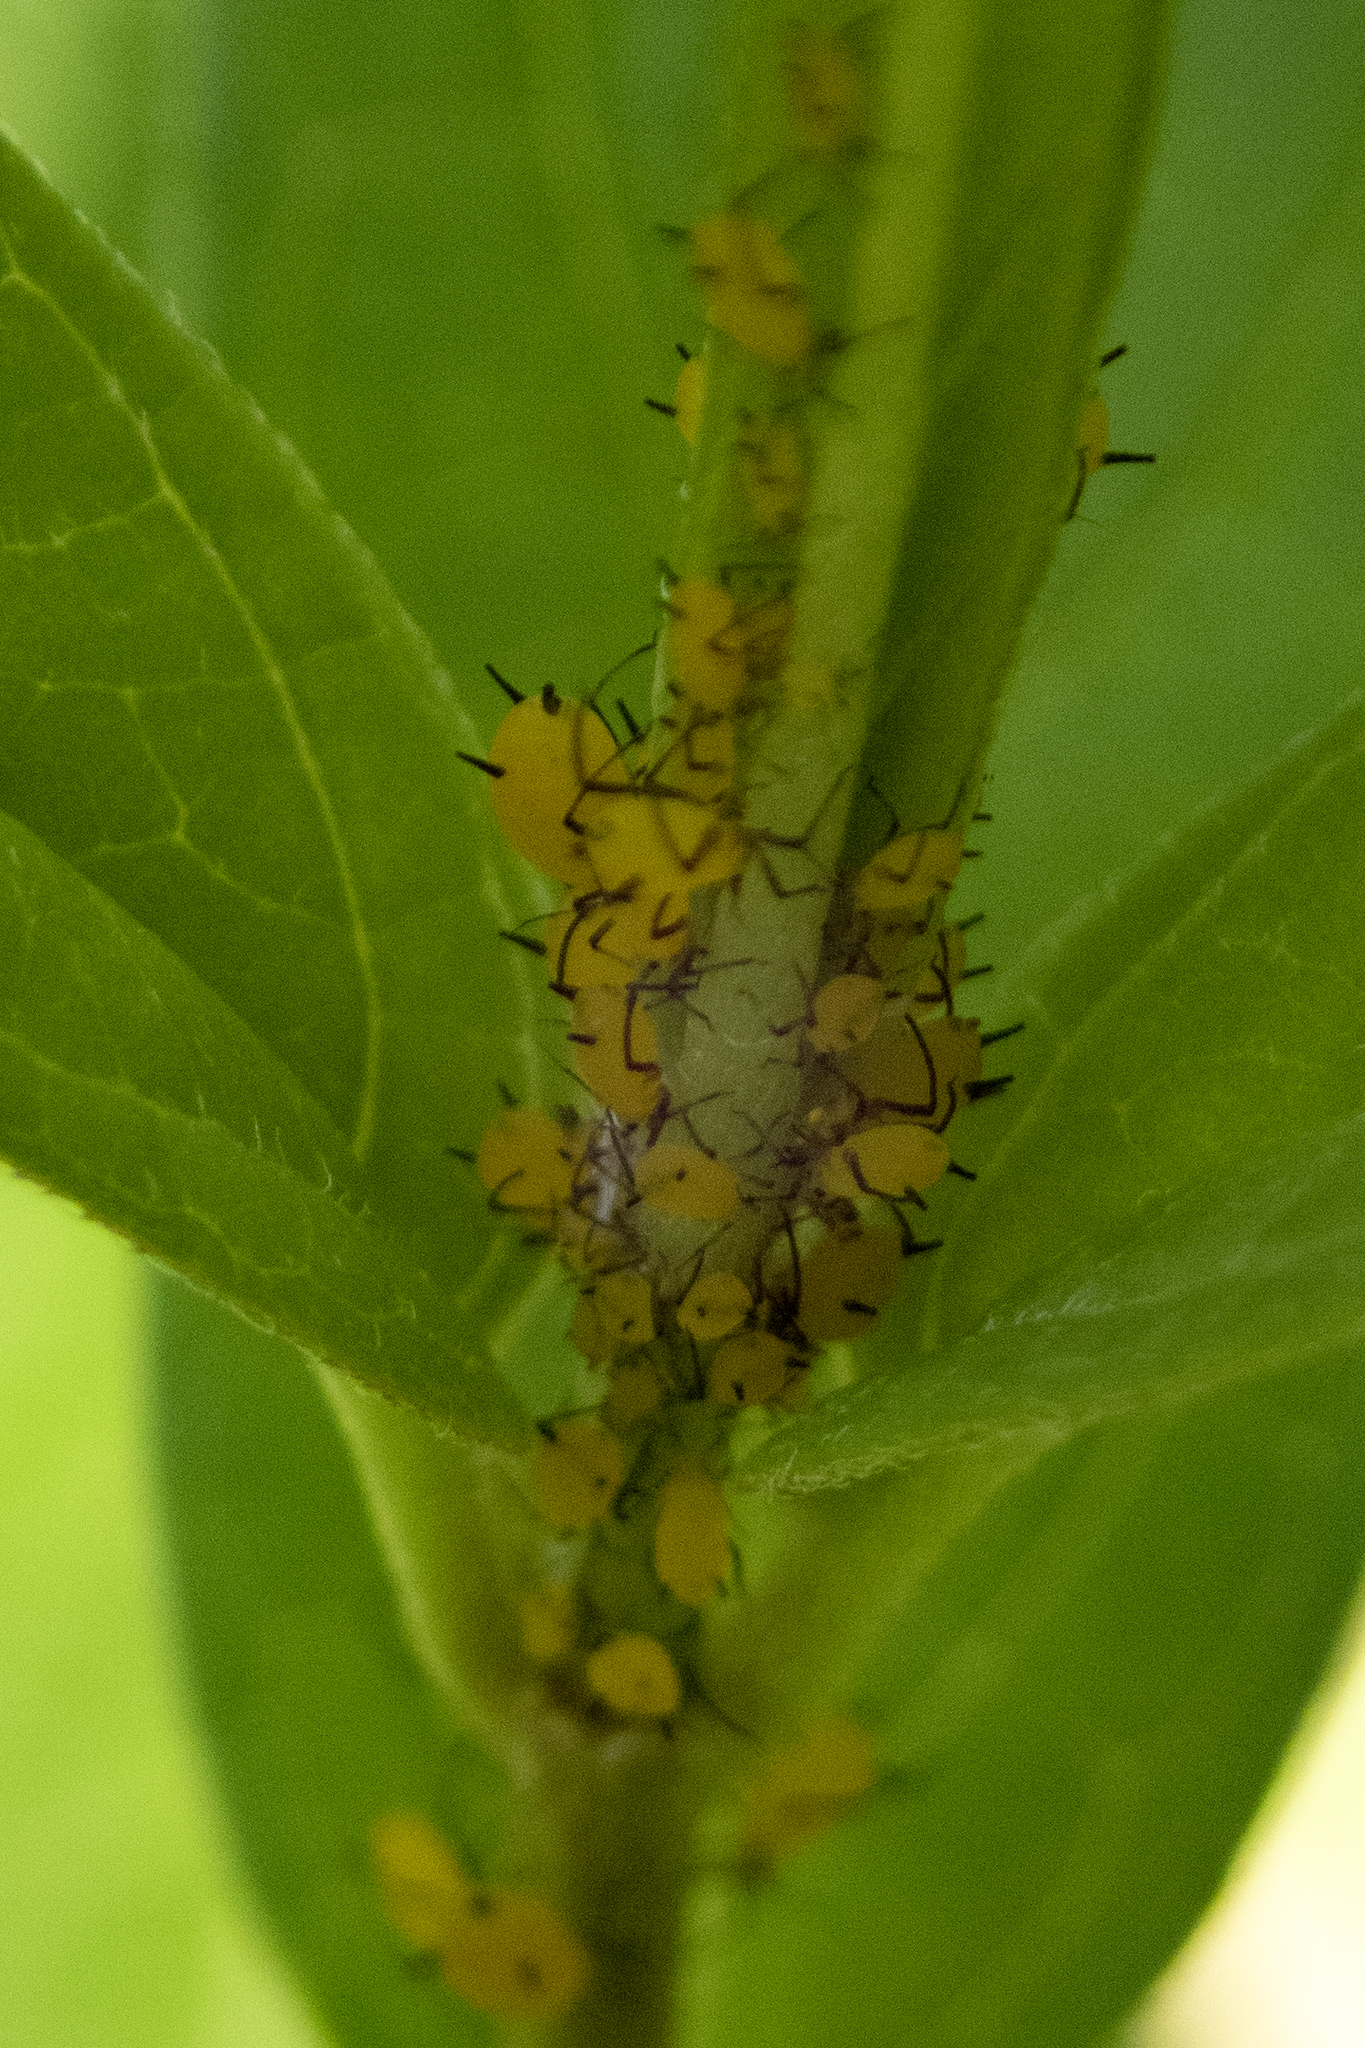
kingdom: Animalia
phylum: Arthropoda
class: Insecta
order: Hemiptera
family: Aphididae
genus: Aphis
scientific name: Aphis nerii
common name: Oleander aphid
